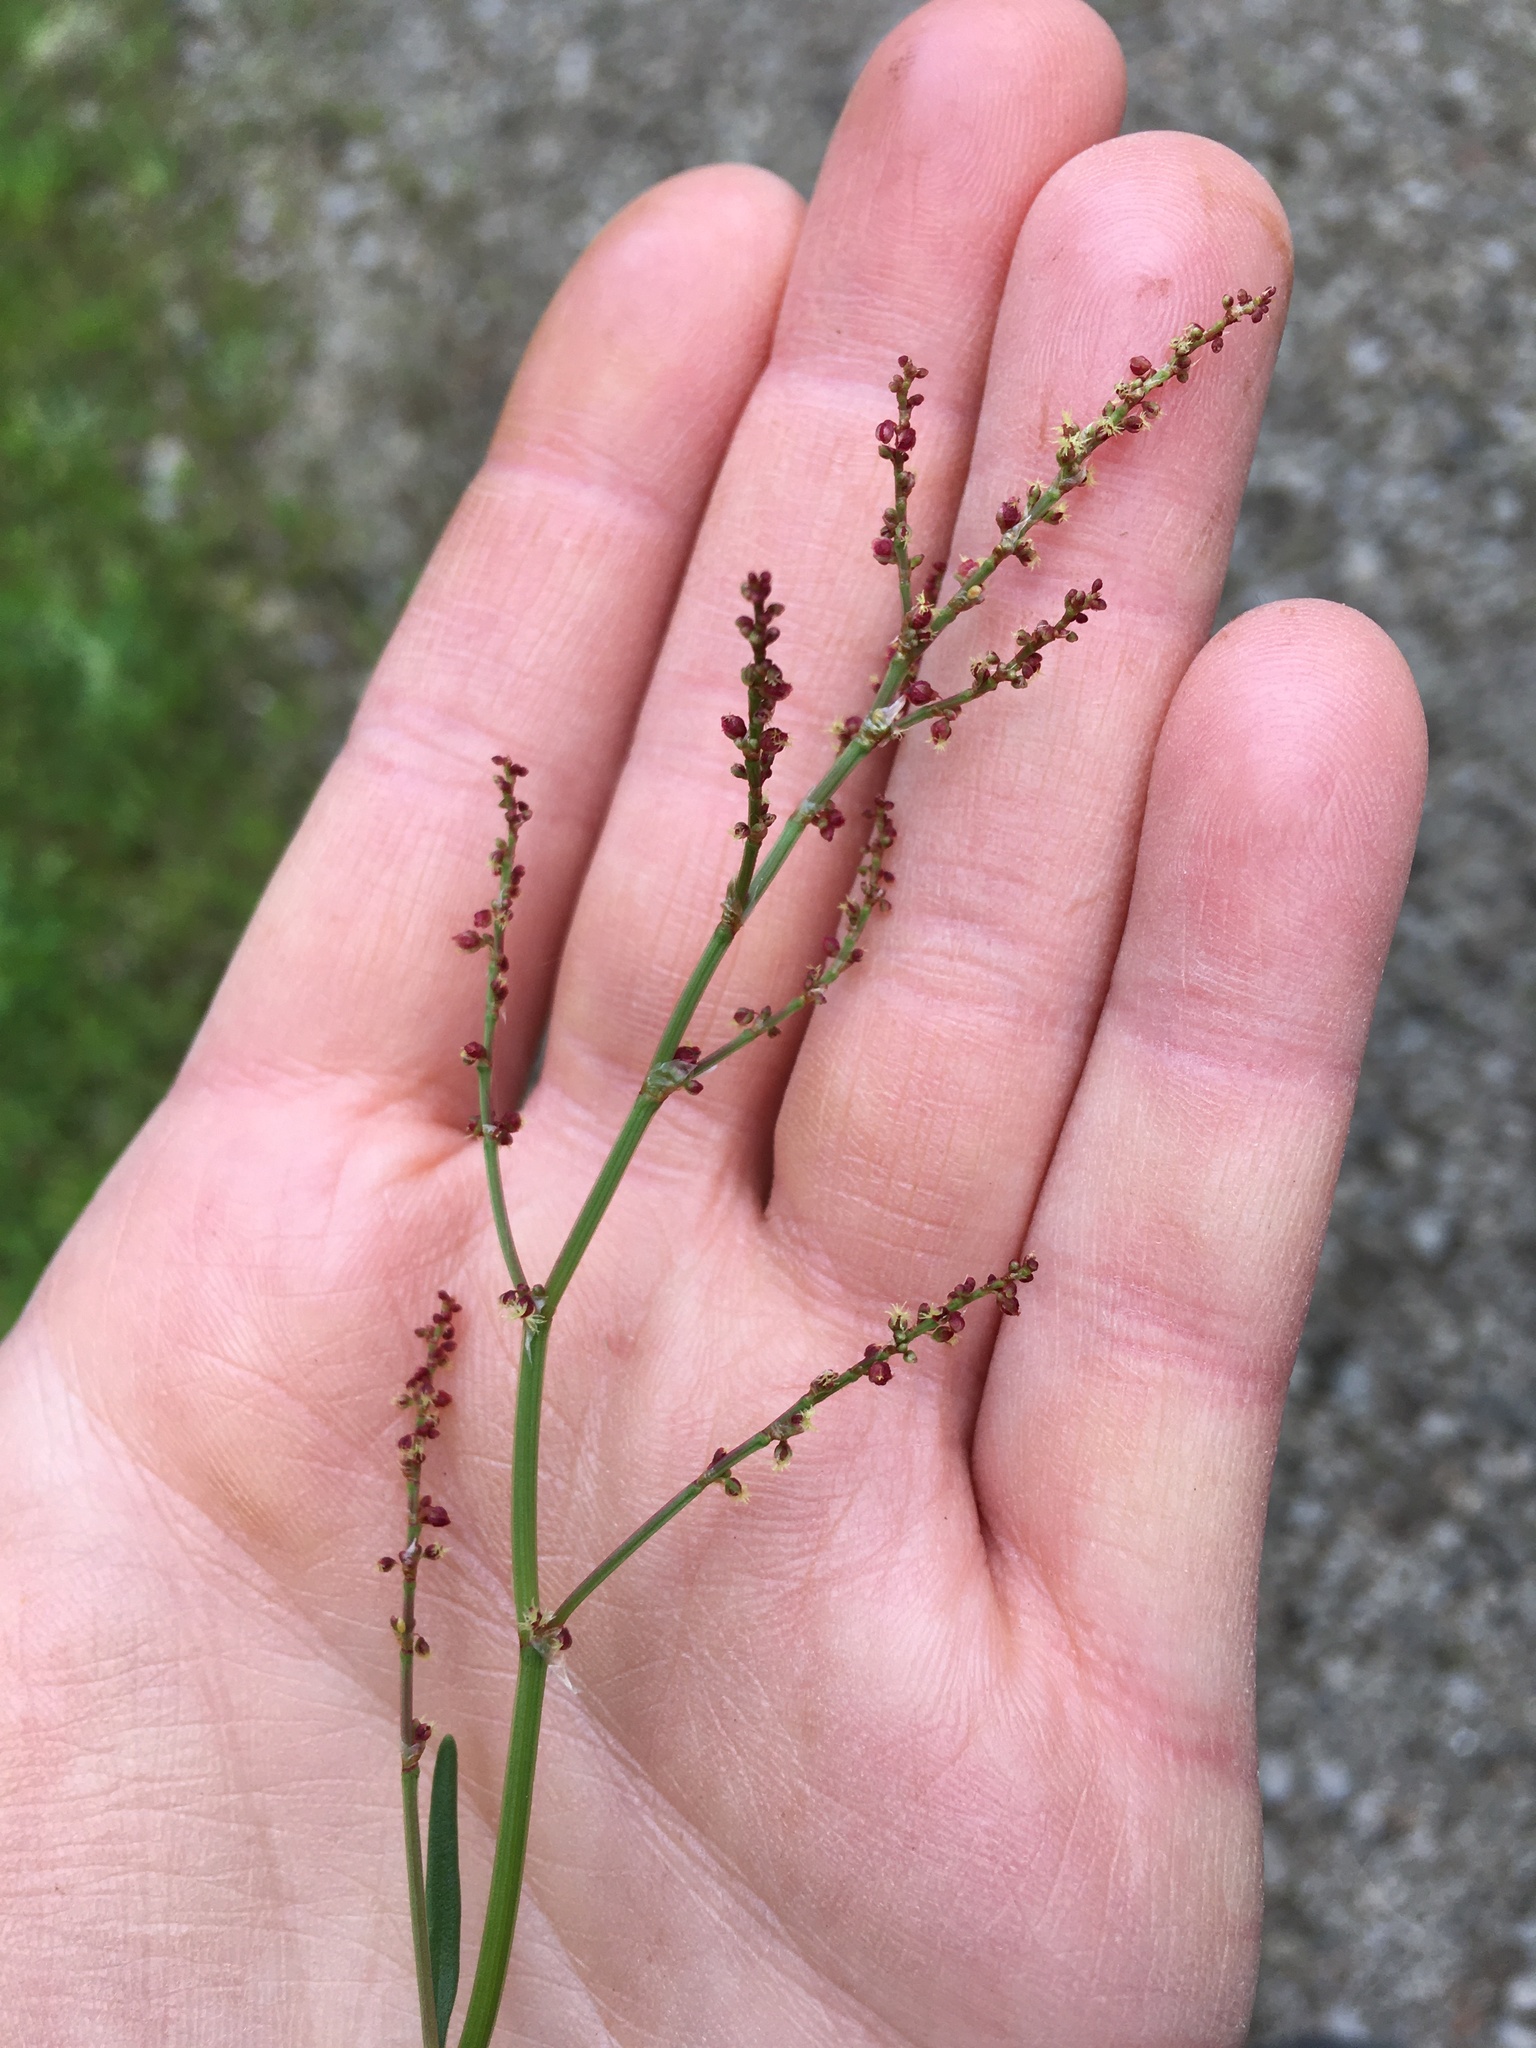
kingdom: Plantae
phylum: Tracheophyta
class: Magnoliopsida
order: Caryophyllales
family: Polygonaceae
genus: Rumex
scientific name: Rumex acetosella
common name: Common sheep sorrel
